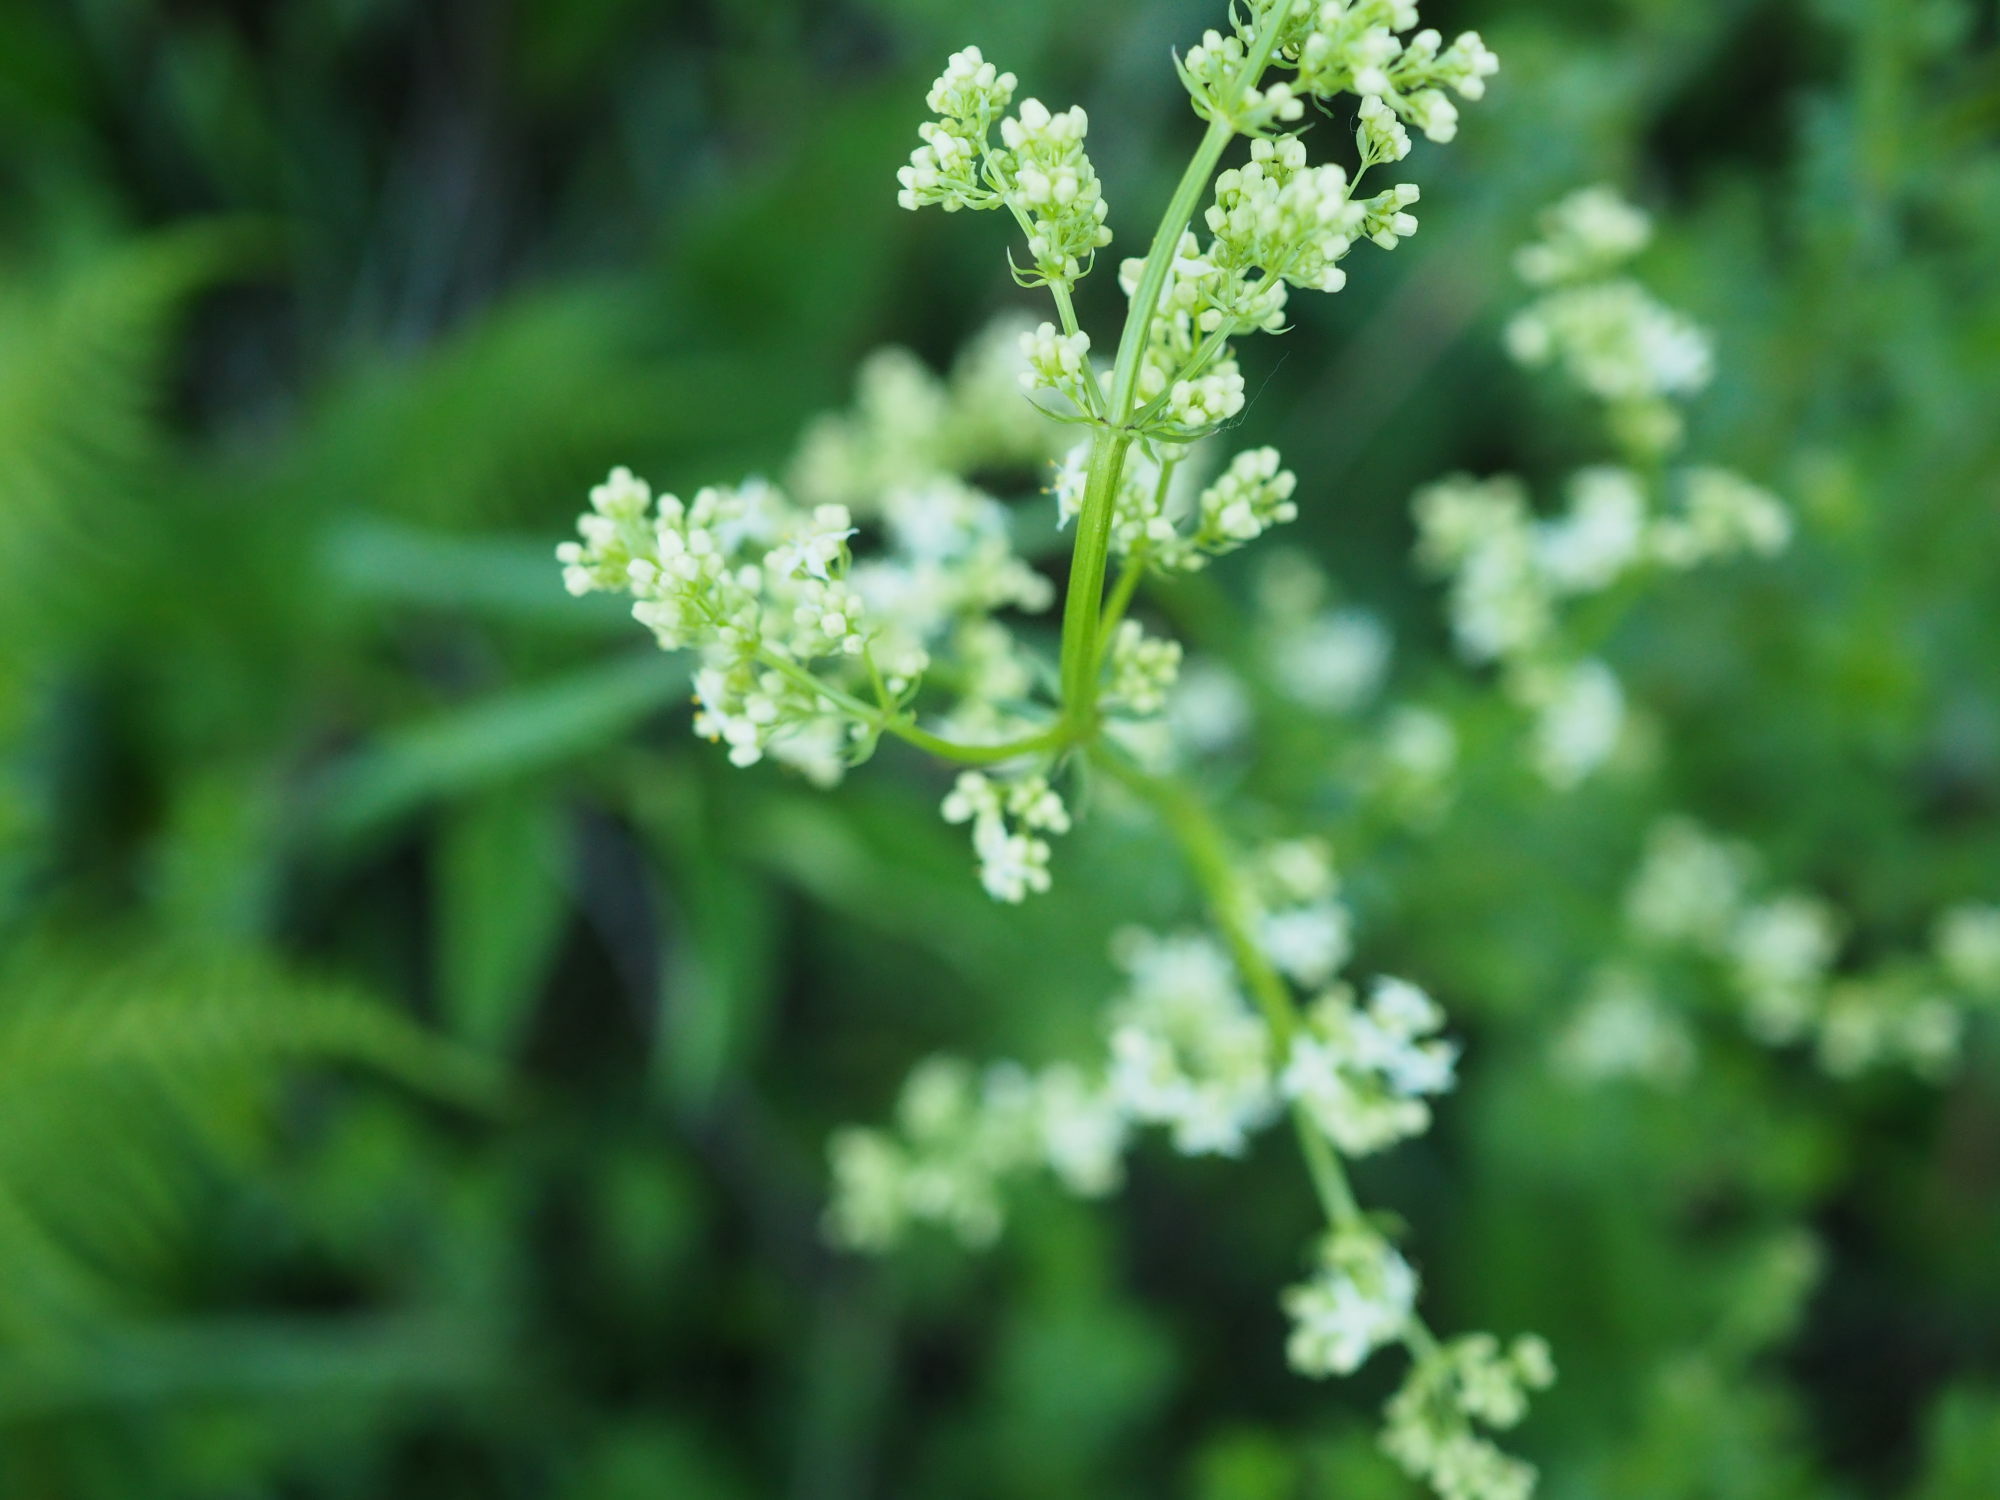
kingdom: Plantae
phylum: Tracheophyta
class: Magnoliopsida
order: Gentianales
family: Rubiaceae
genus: Galium
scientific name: Galium odoratum
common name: Sweet woodruff
